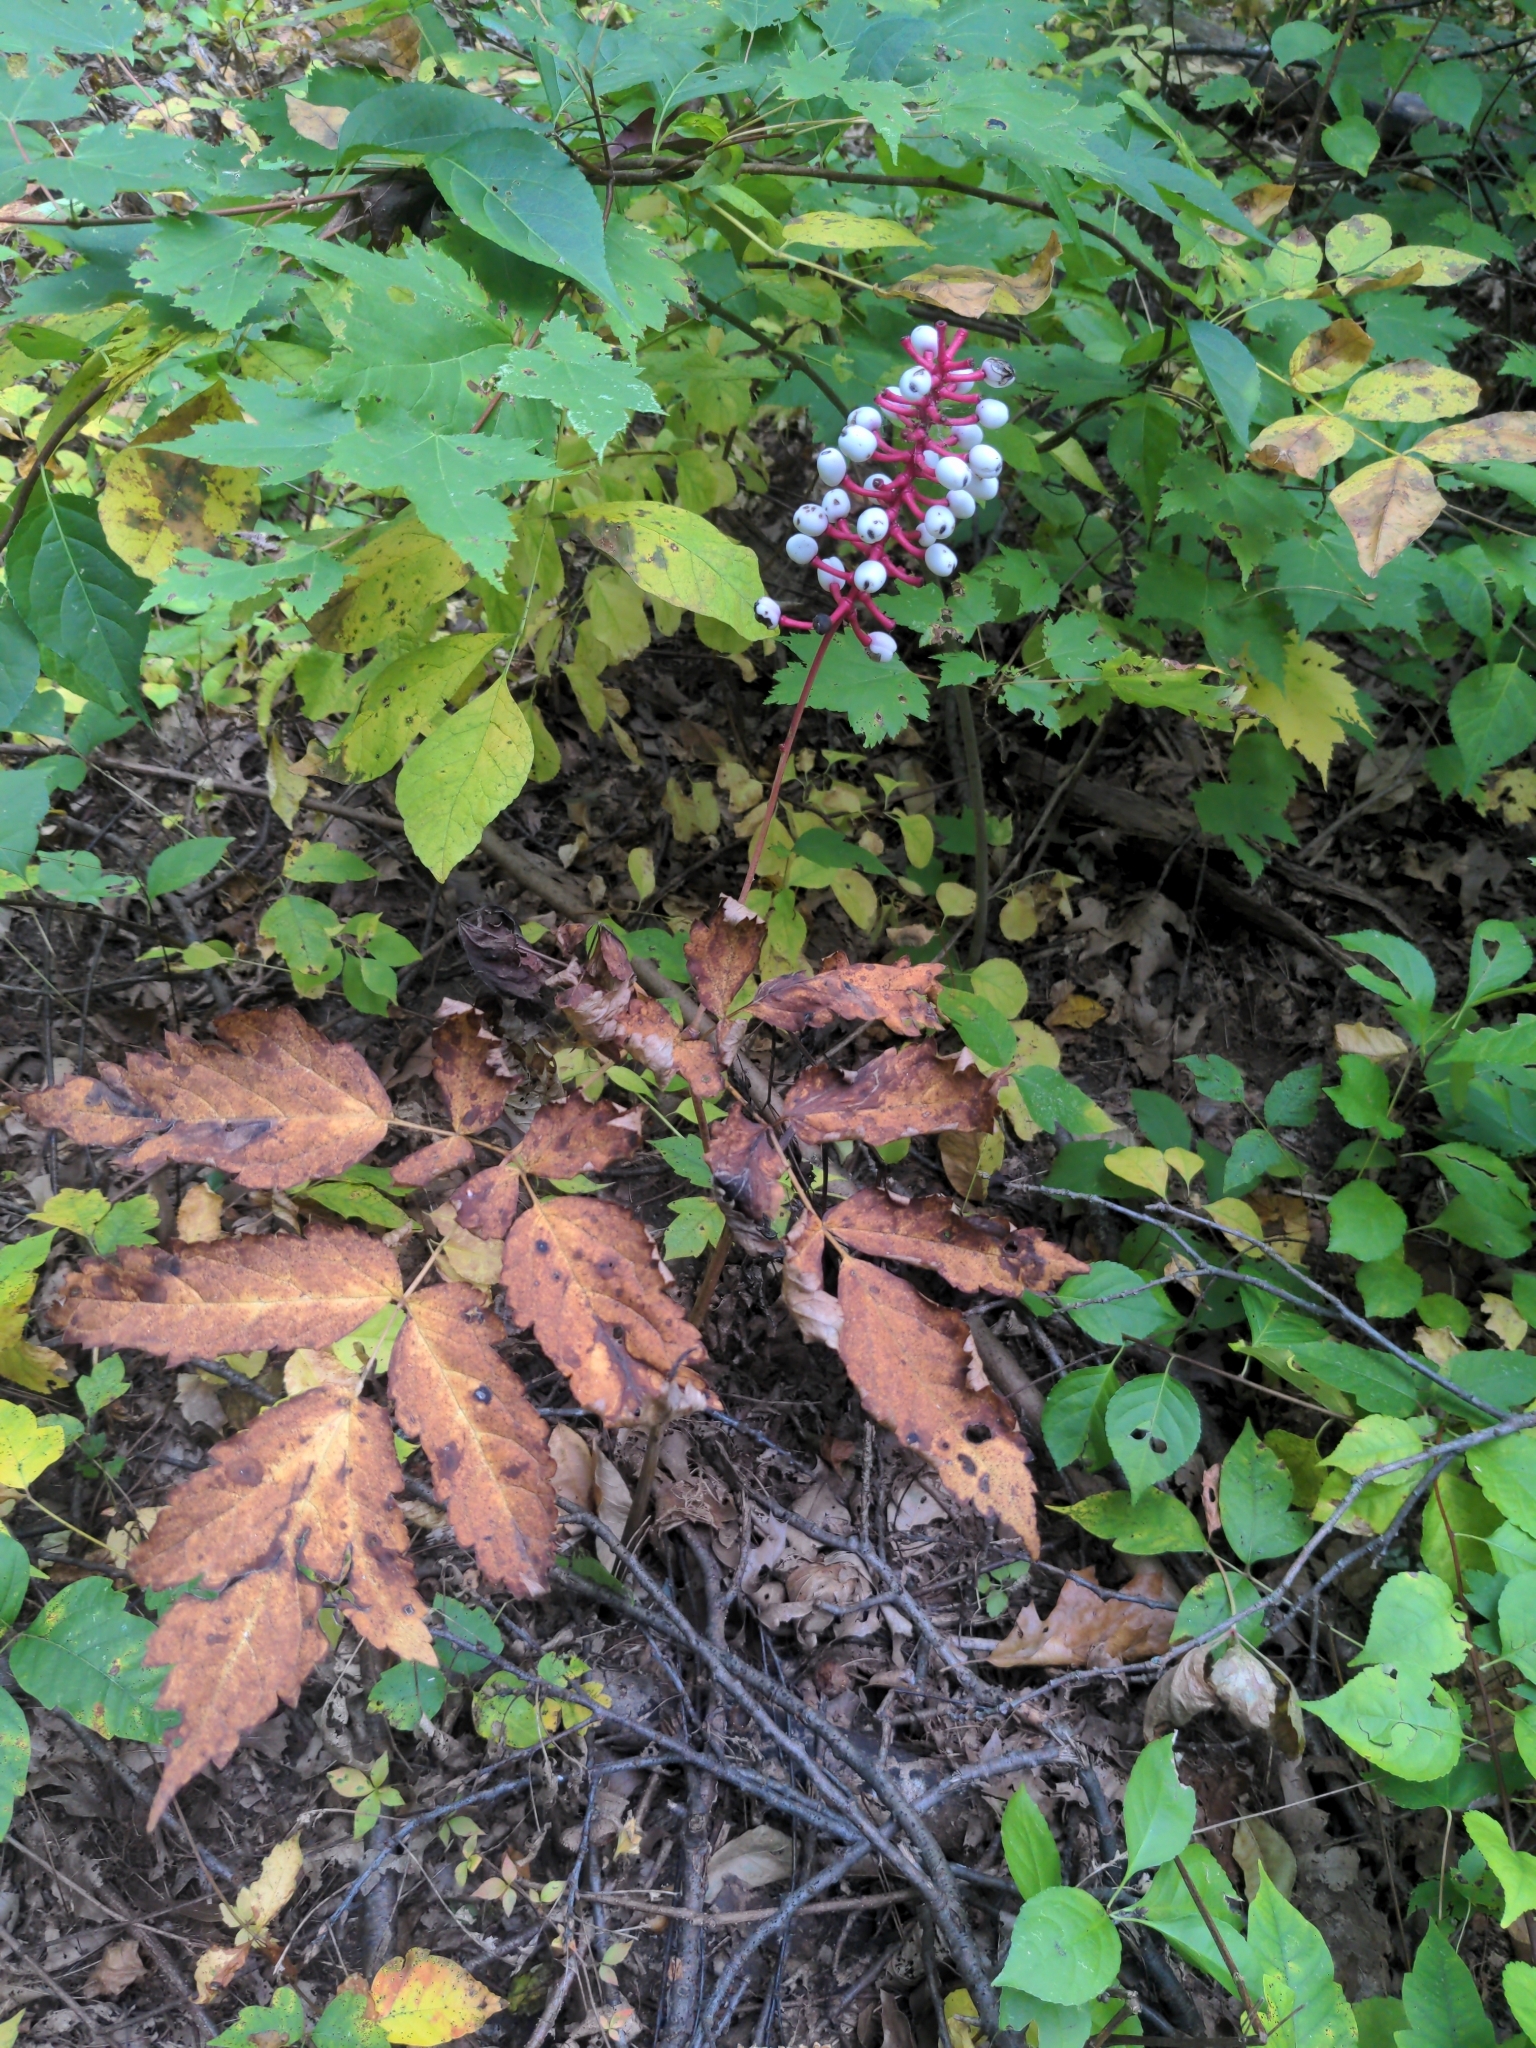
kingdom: Plantae
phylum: Tracheophyta
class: Magnoliopsida
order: Ranunculales
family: Ranunculaceae
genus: Actaea
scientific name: Actaea pachypoda
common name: Doll's-eyes
